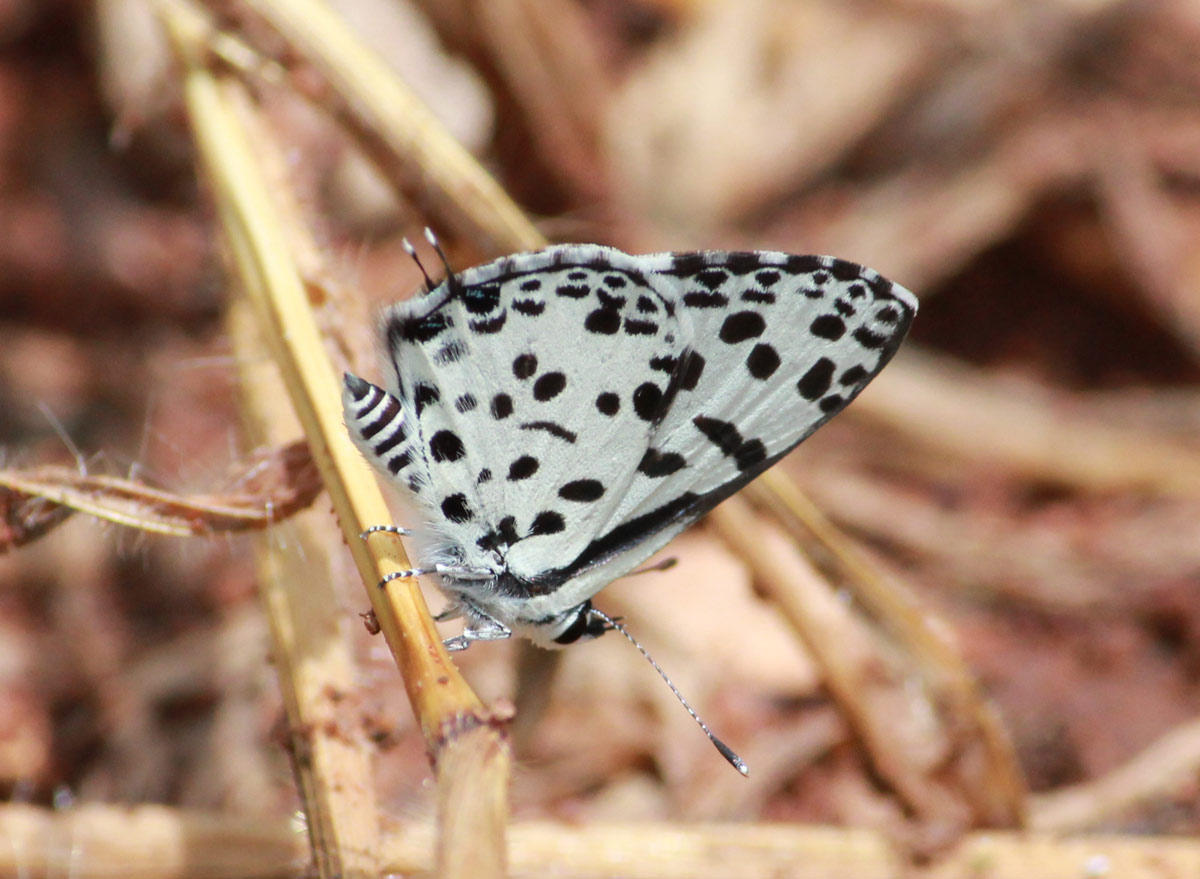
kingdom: Animalia
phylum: Arthropoda
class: Insecta
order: Lepidoptera
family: Lycaenidae
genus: Zintha
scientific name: Zintha hintza
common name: Hintza pierrot
